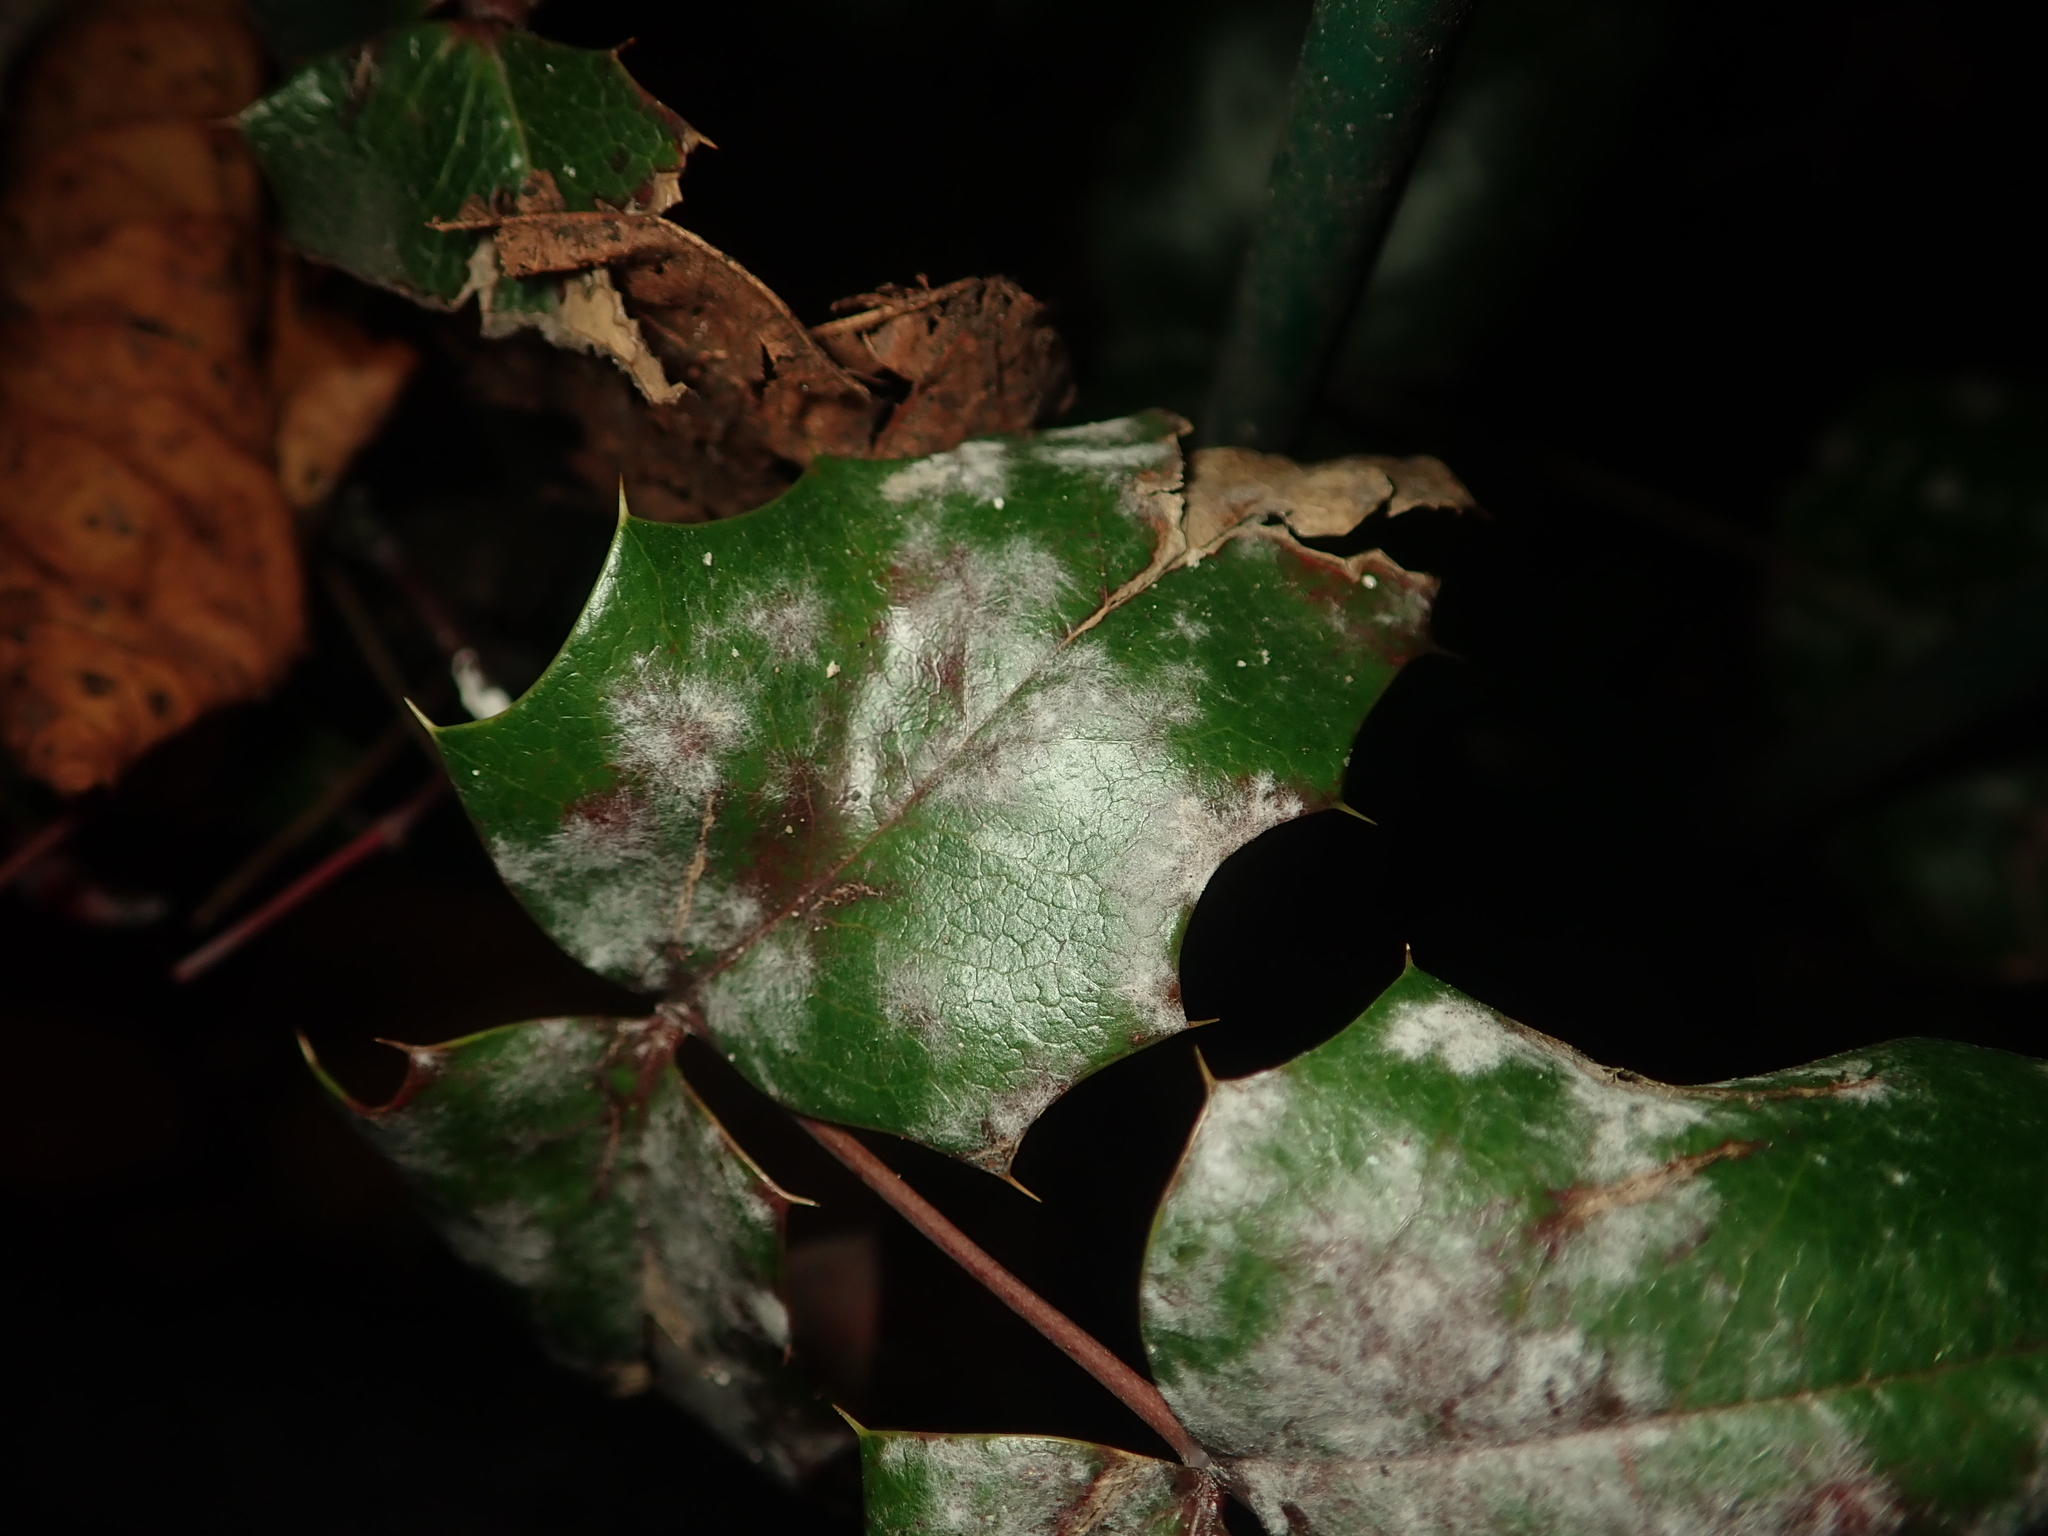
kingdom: Plantae
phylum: Tracheophyta
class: Magnoliopsida
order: Ranunculales
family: Berberidaceae
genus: Mahonia
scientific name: Mahonia aquifolium
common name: Oregon-grape
